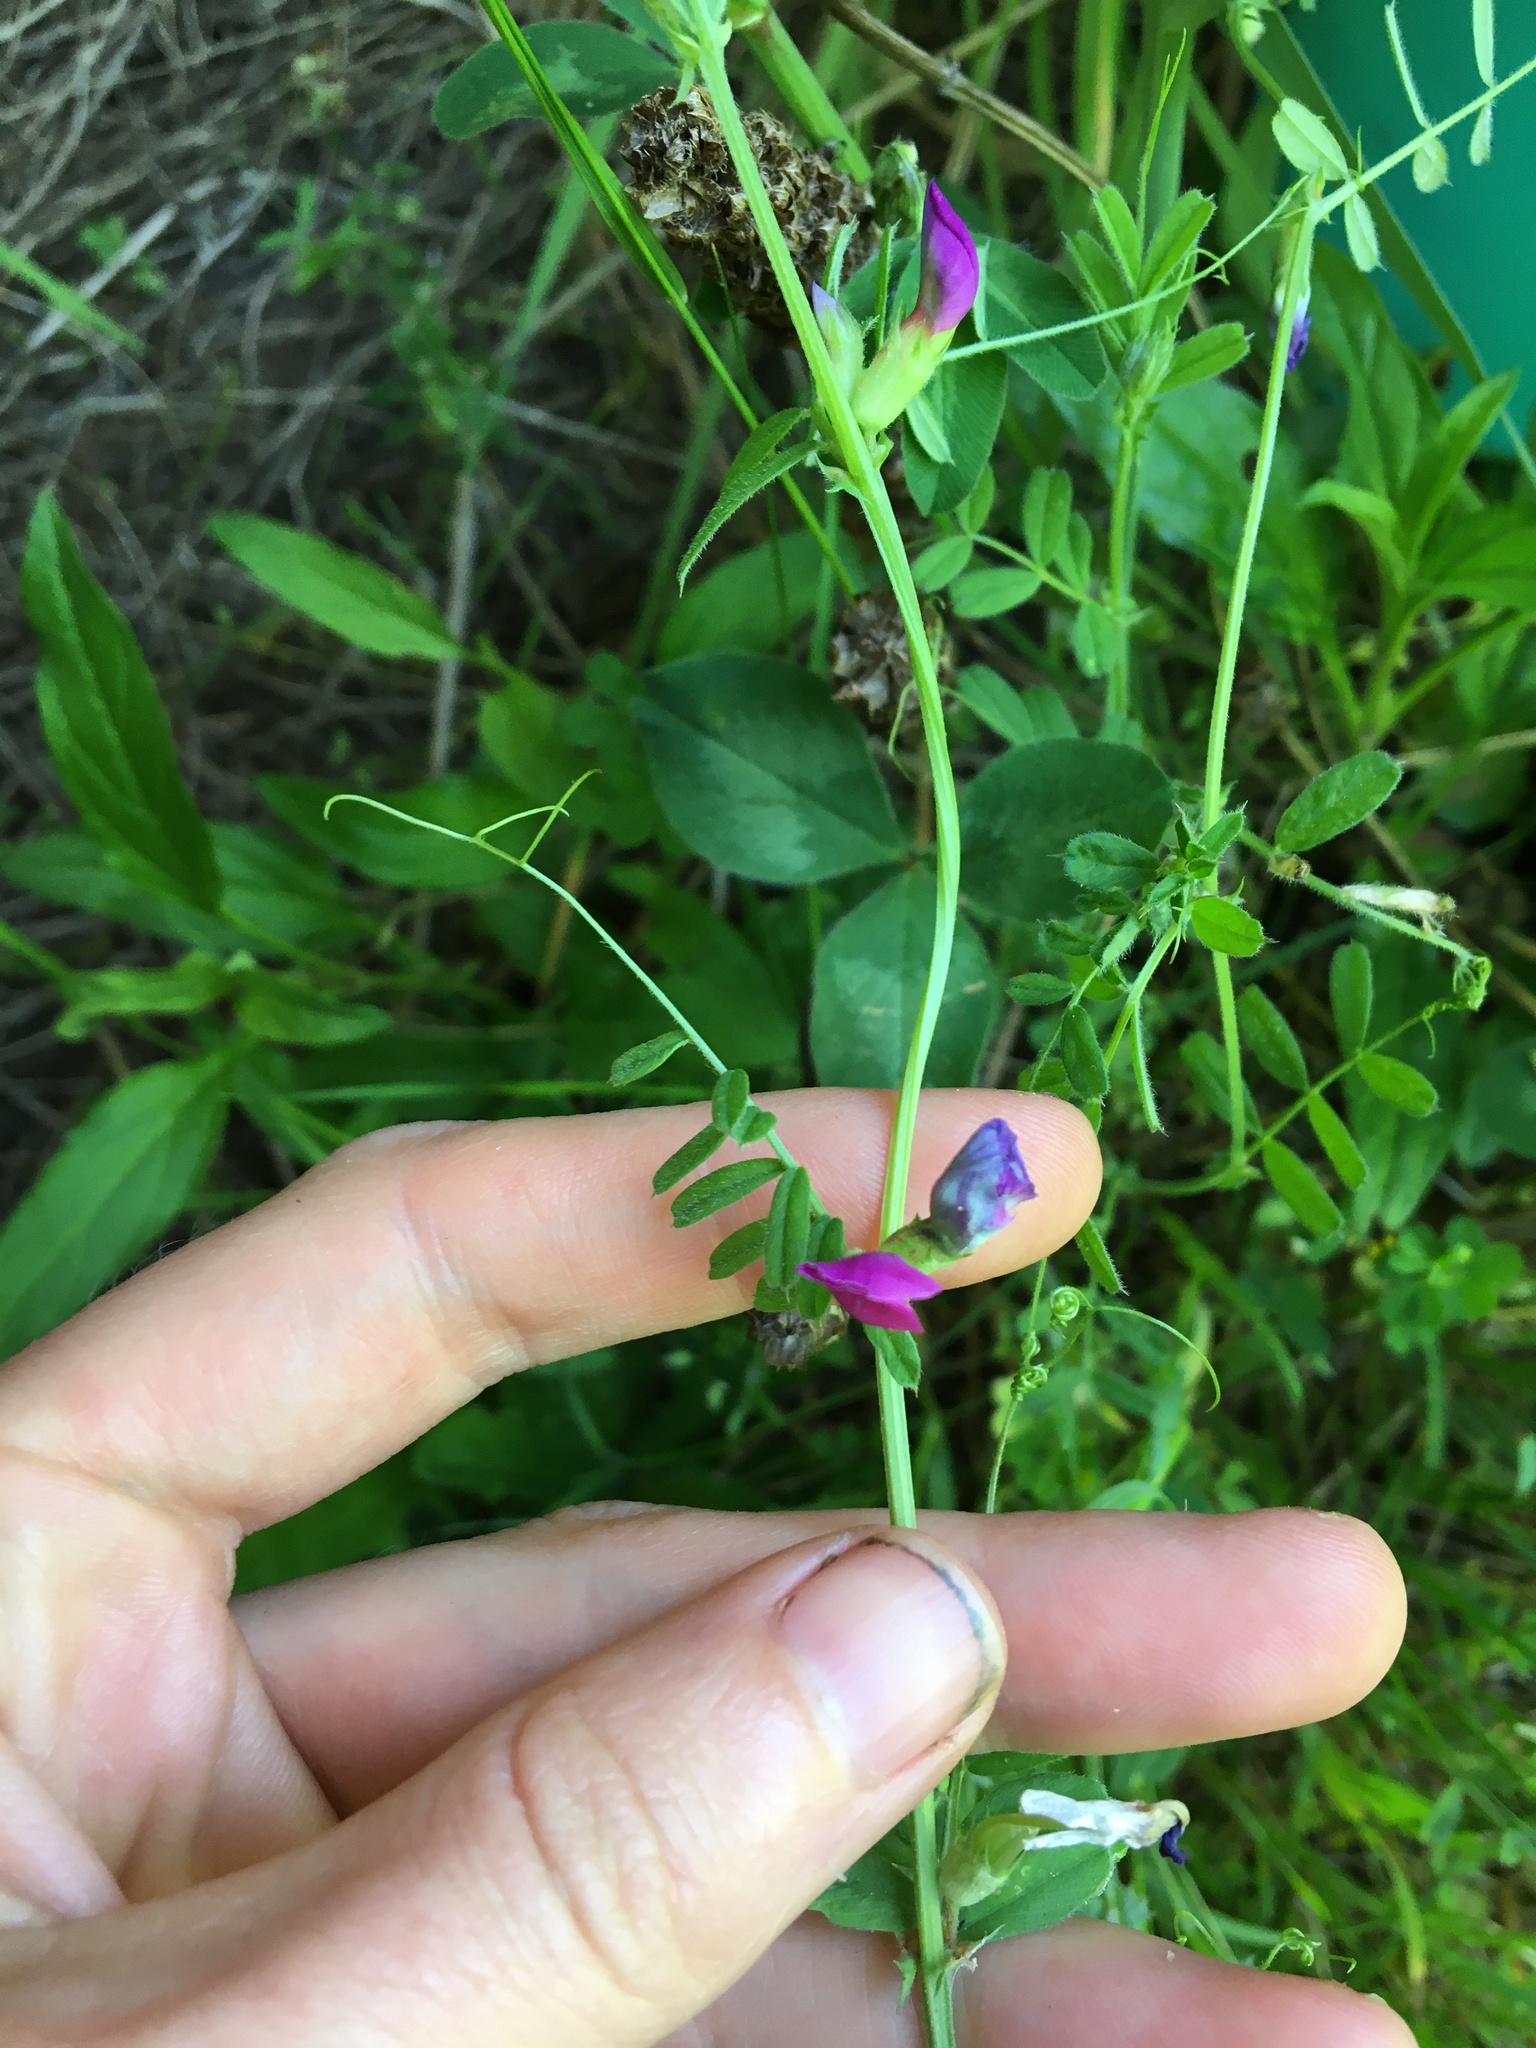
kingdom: Plantae
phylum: Tracheophyta
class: Magnoliopsida
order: Fabales
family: Fabaceae
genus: Vicia
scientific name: Vicia sativa
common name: Garden vetch
